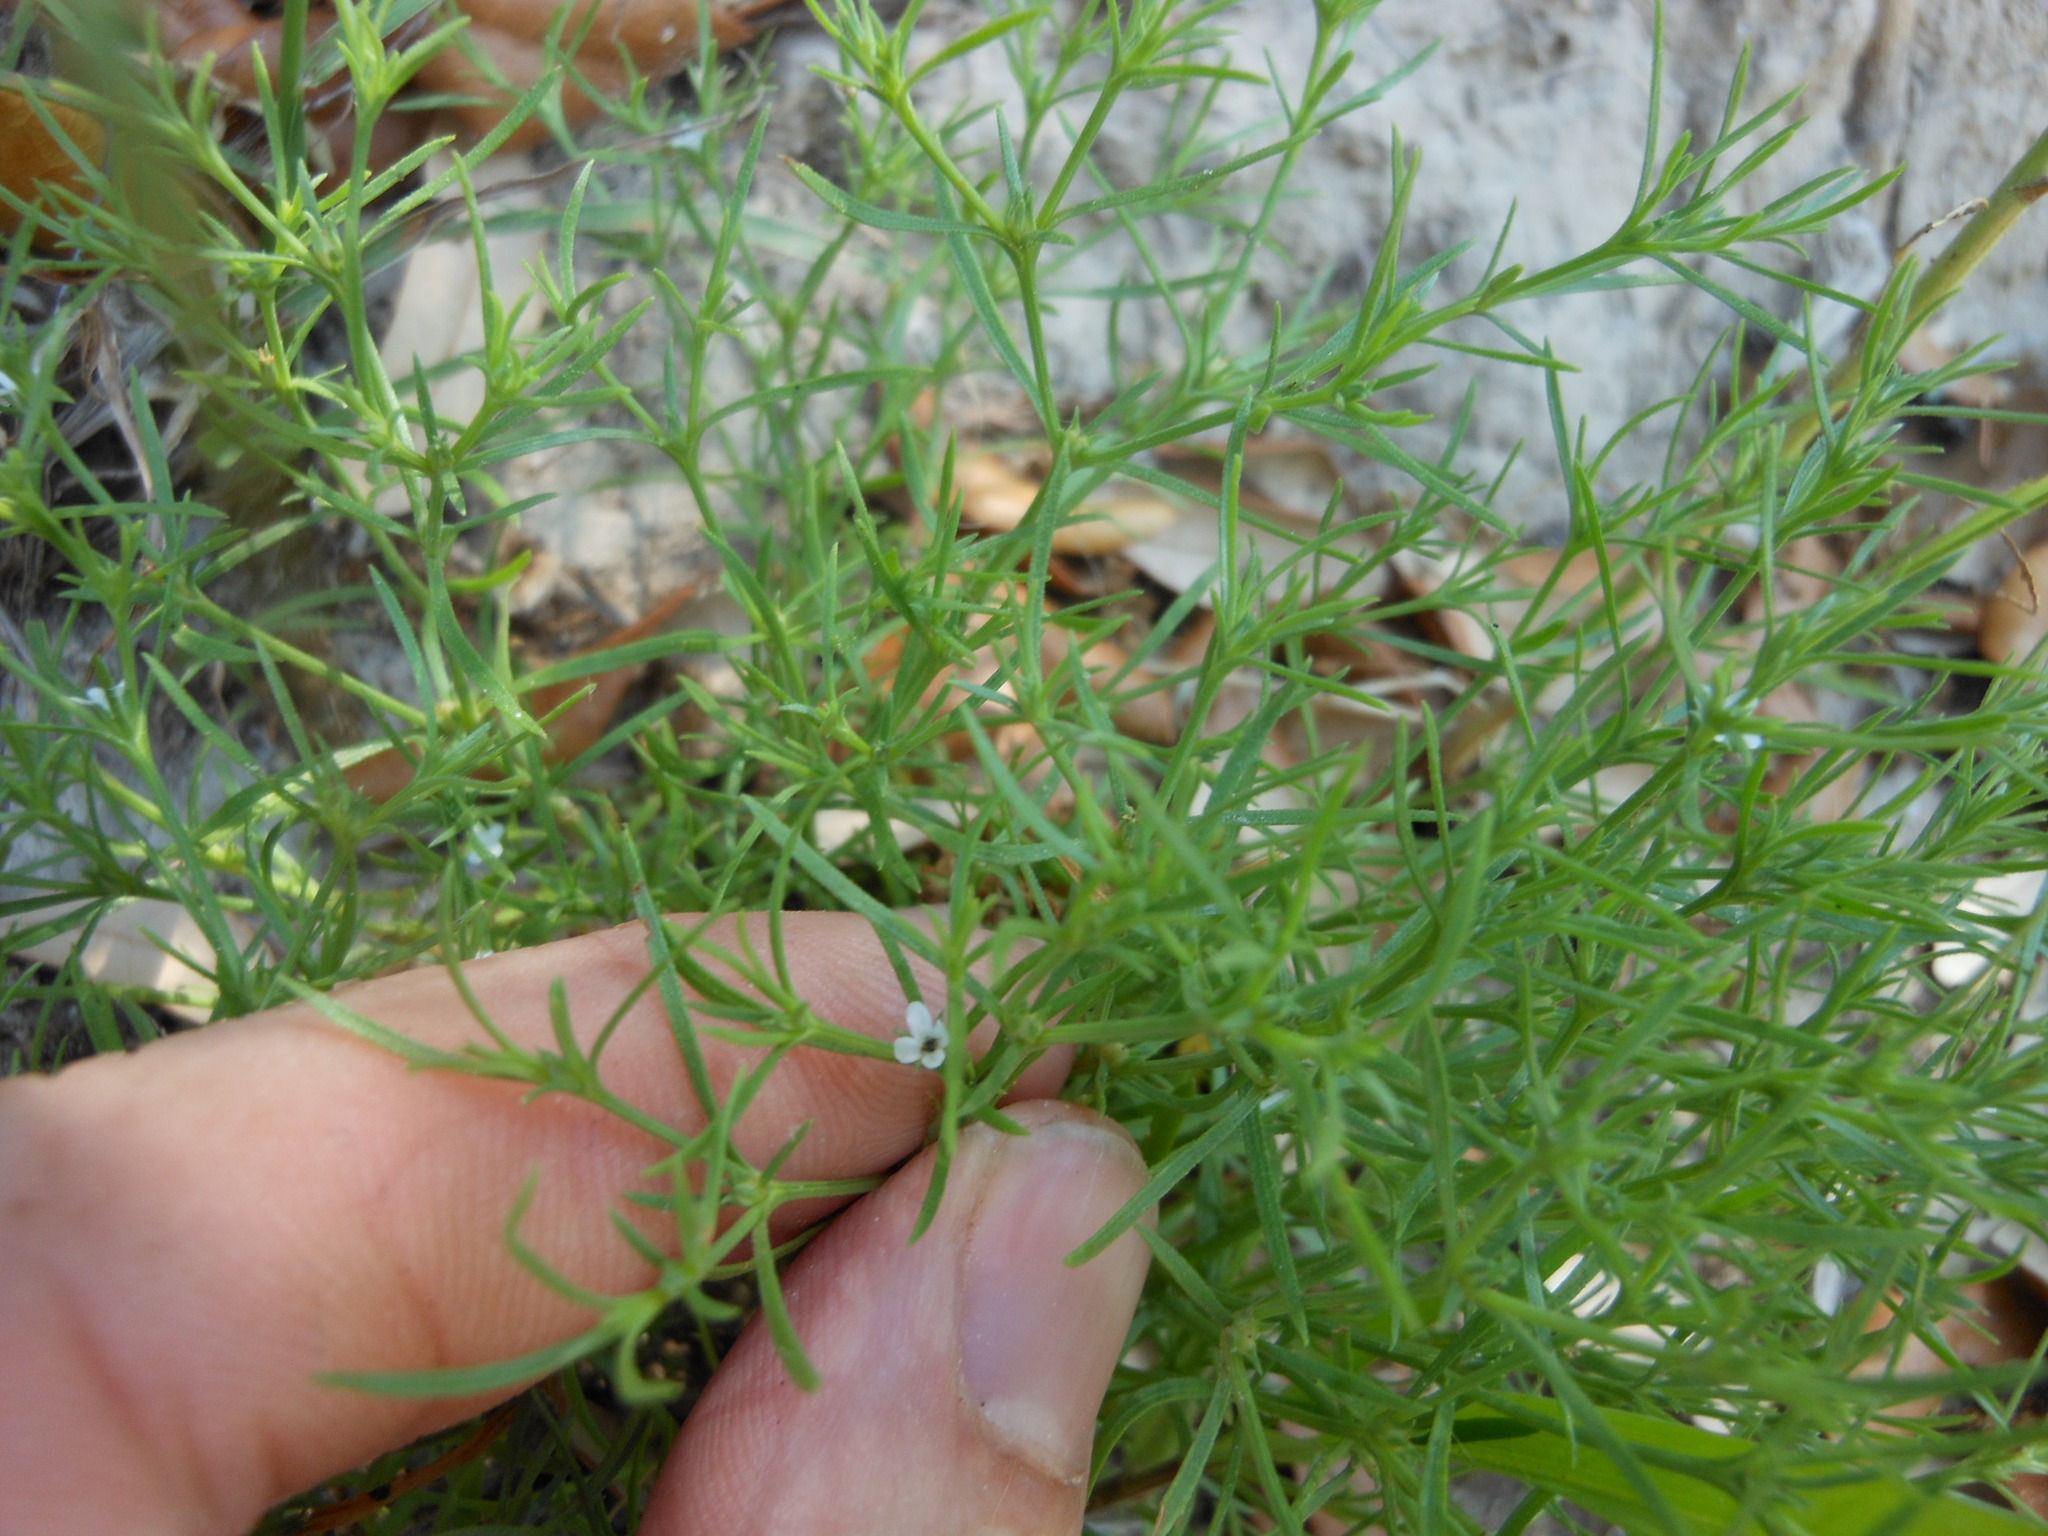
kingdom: Plantae
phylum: Tracheophyta
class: Magnoliopsida
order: Lamiales
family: Tetrachondraceae
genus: Polypremum
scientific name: Polypremum procumbens
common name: Juniper-leaf
